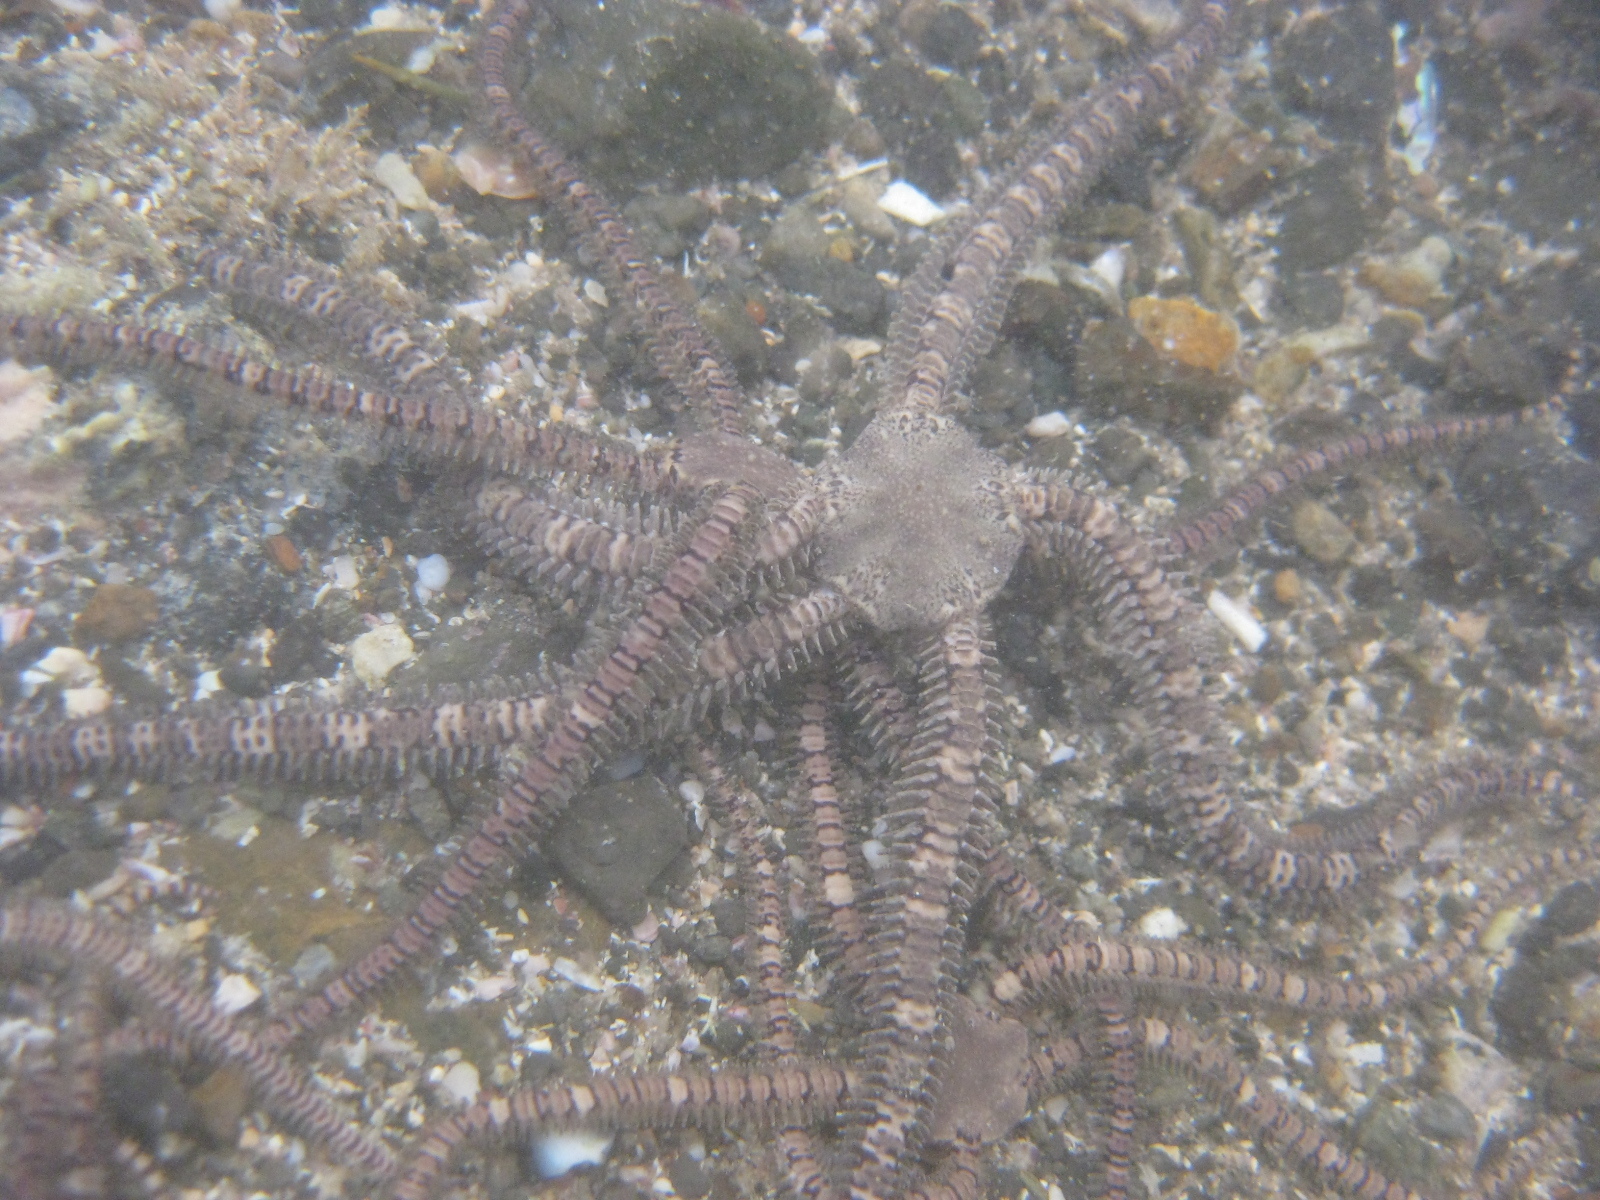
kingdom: Animalia
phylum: Echinodermata
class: Ophiuroidea
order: Amphilepidida
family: Ophionereididae
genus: Ophionereis
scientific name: Ophionereis fasciata
